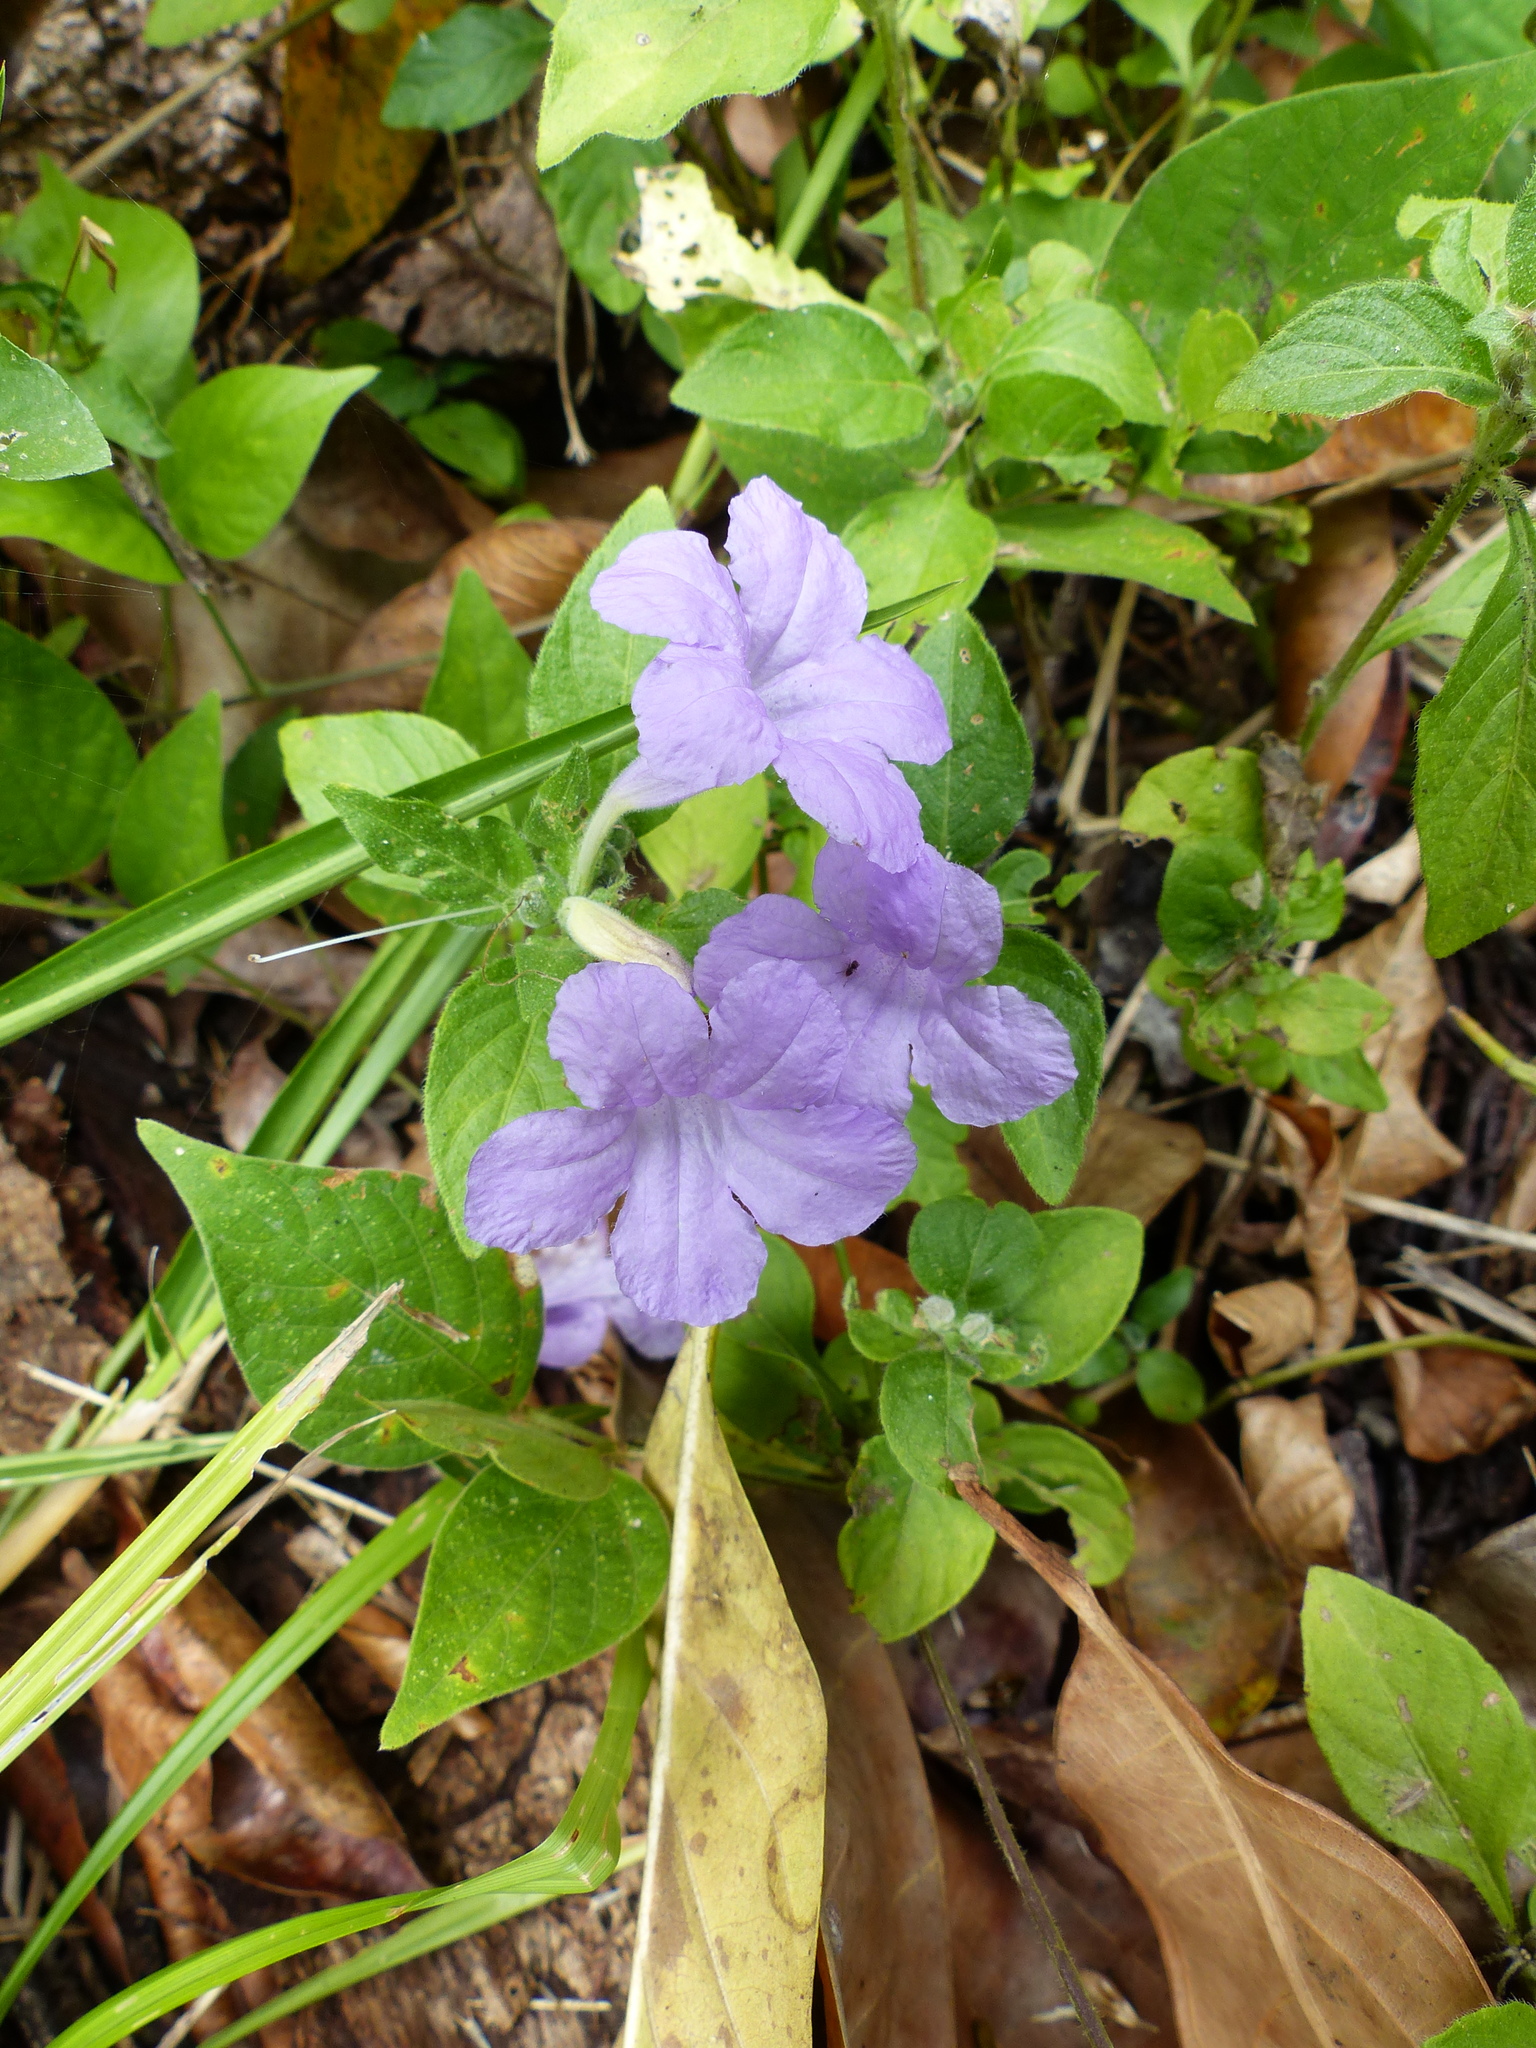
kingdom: Plantae
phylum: Tracheophyta
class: Magnoliopsida
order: Lamiales
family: Acanthaceae
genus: Ruellia
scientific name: Ruellia bahiensis
